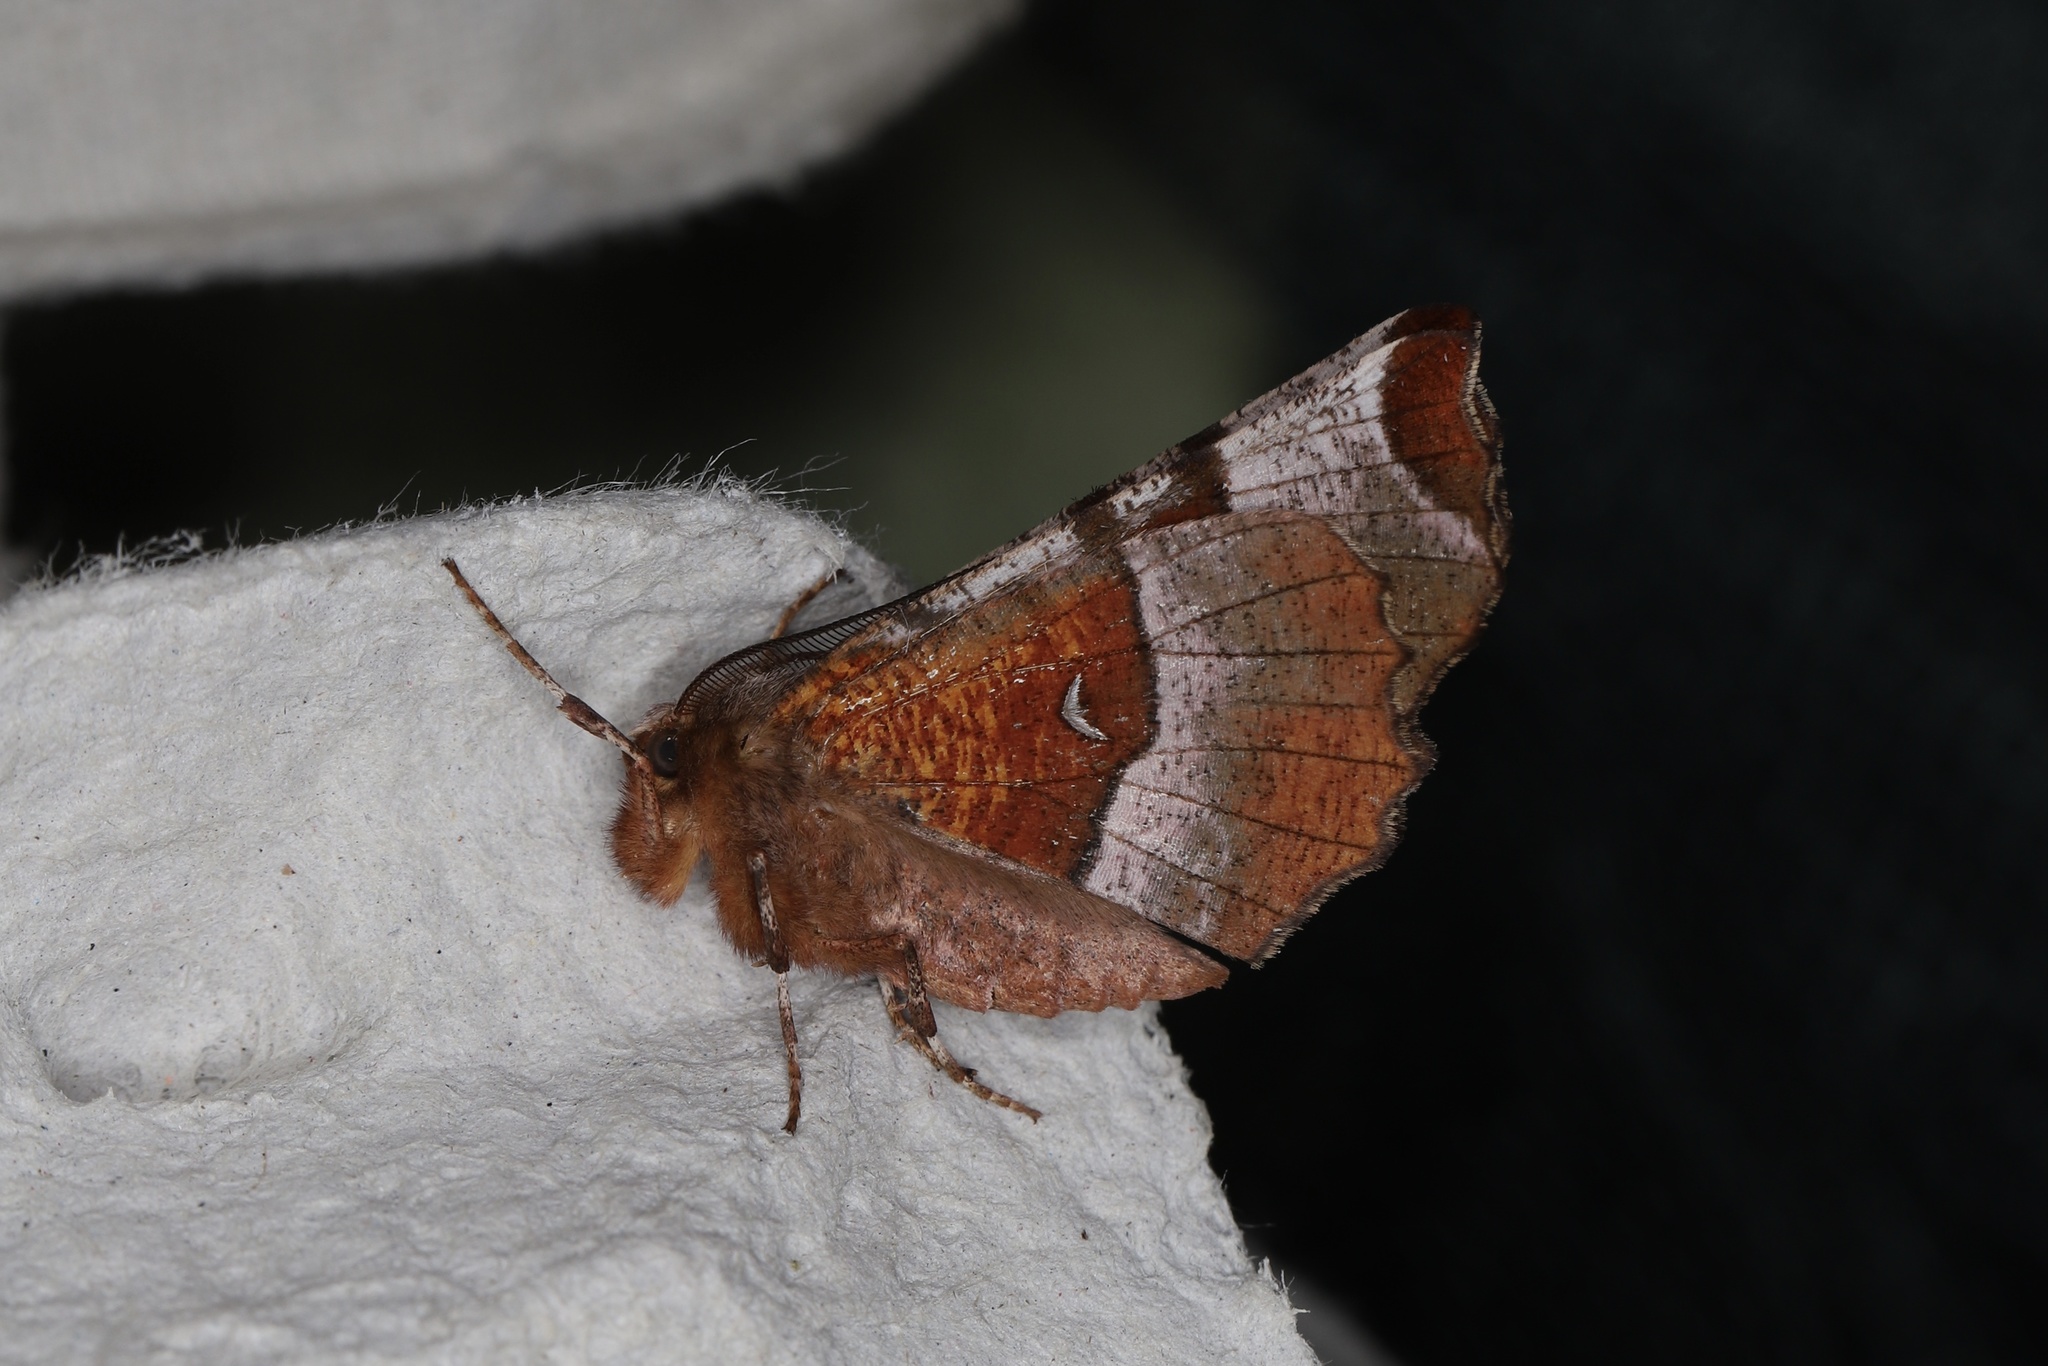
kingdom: Animalia
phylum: Arthropoda
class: Insecta
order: Lepidoptera
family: Geometridae
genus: Selenia
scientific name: Selenia tetralunaria
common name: Purple thorn
